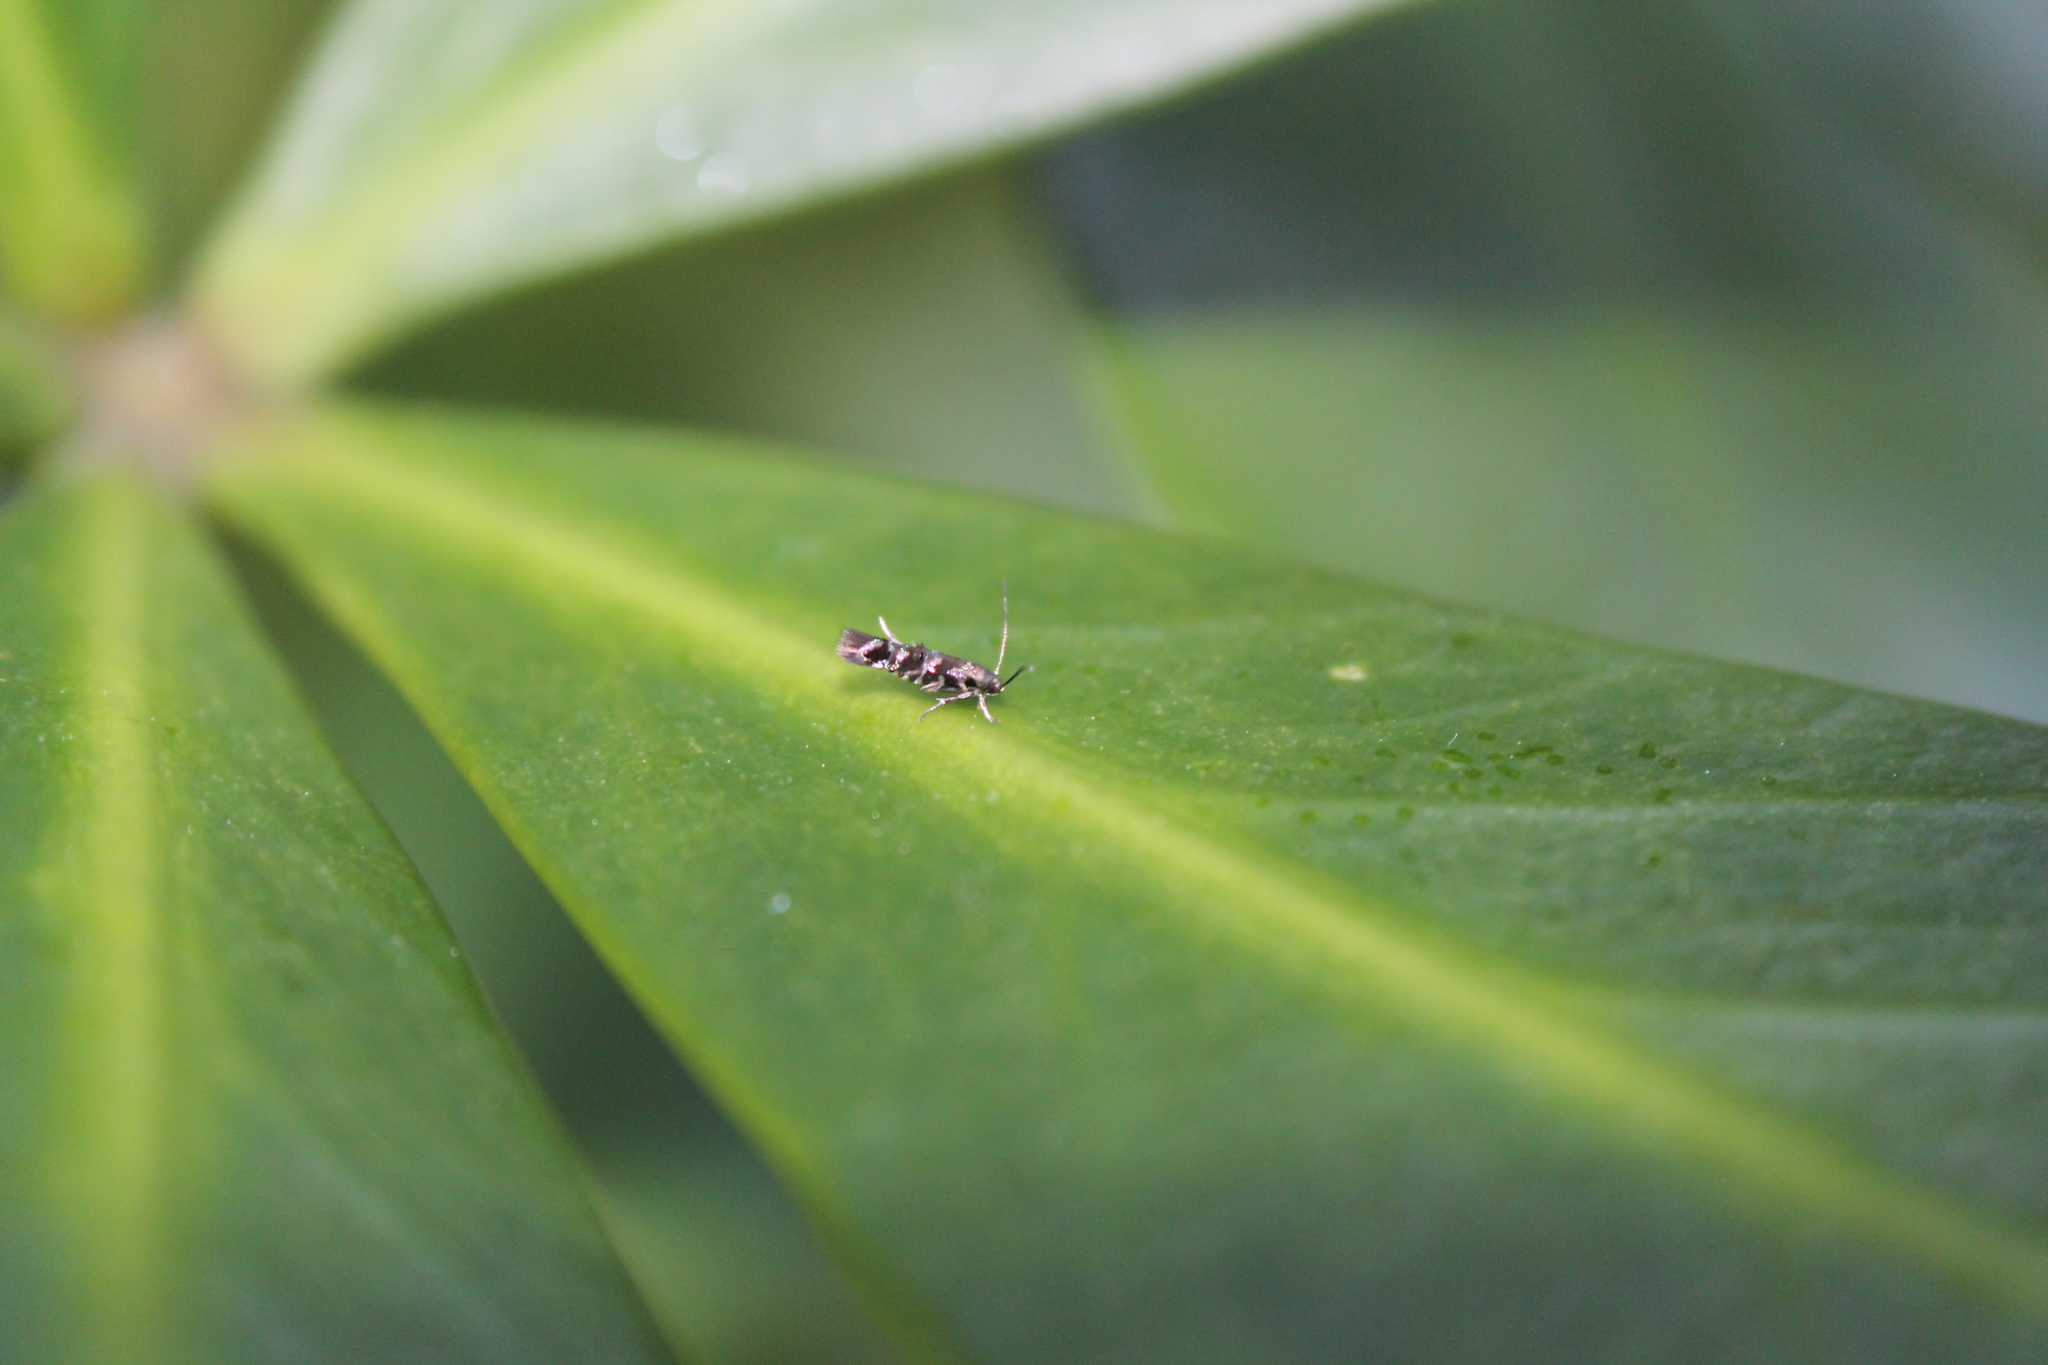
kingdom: Animalia
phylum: Arthropoda
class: Insecta
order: Lepidoptera
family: Momphidae
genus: Zapyrastra
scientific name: Zapyrastra calliphana
